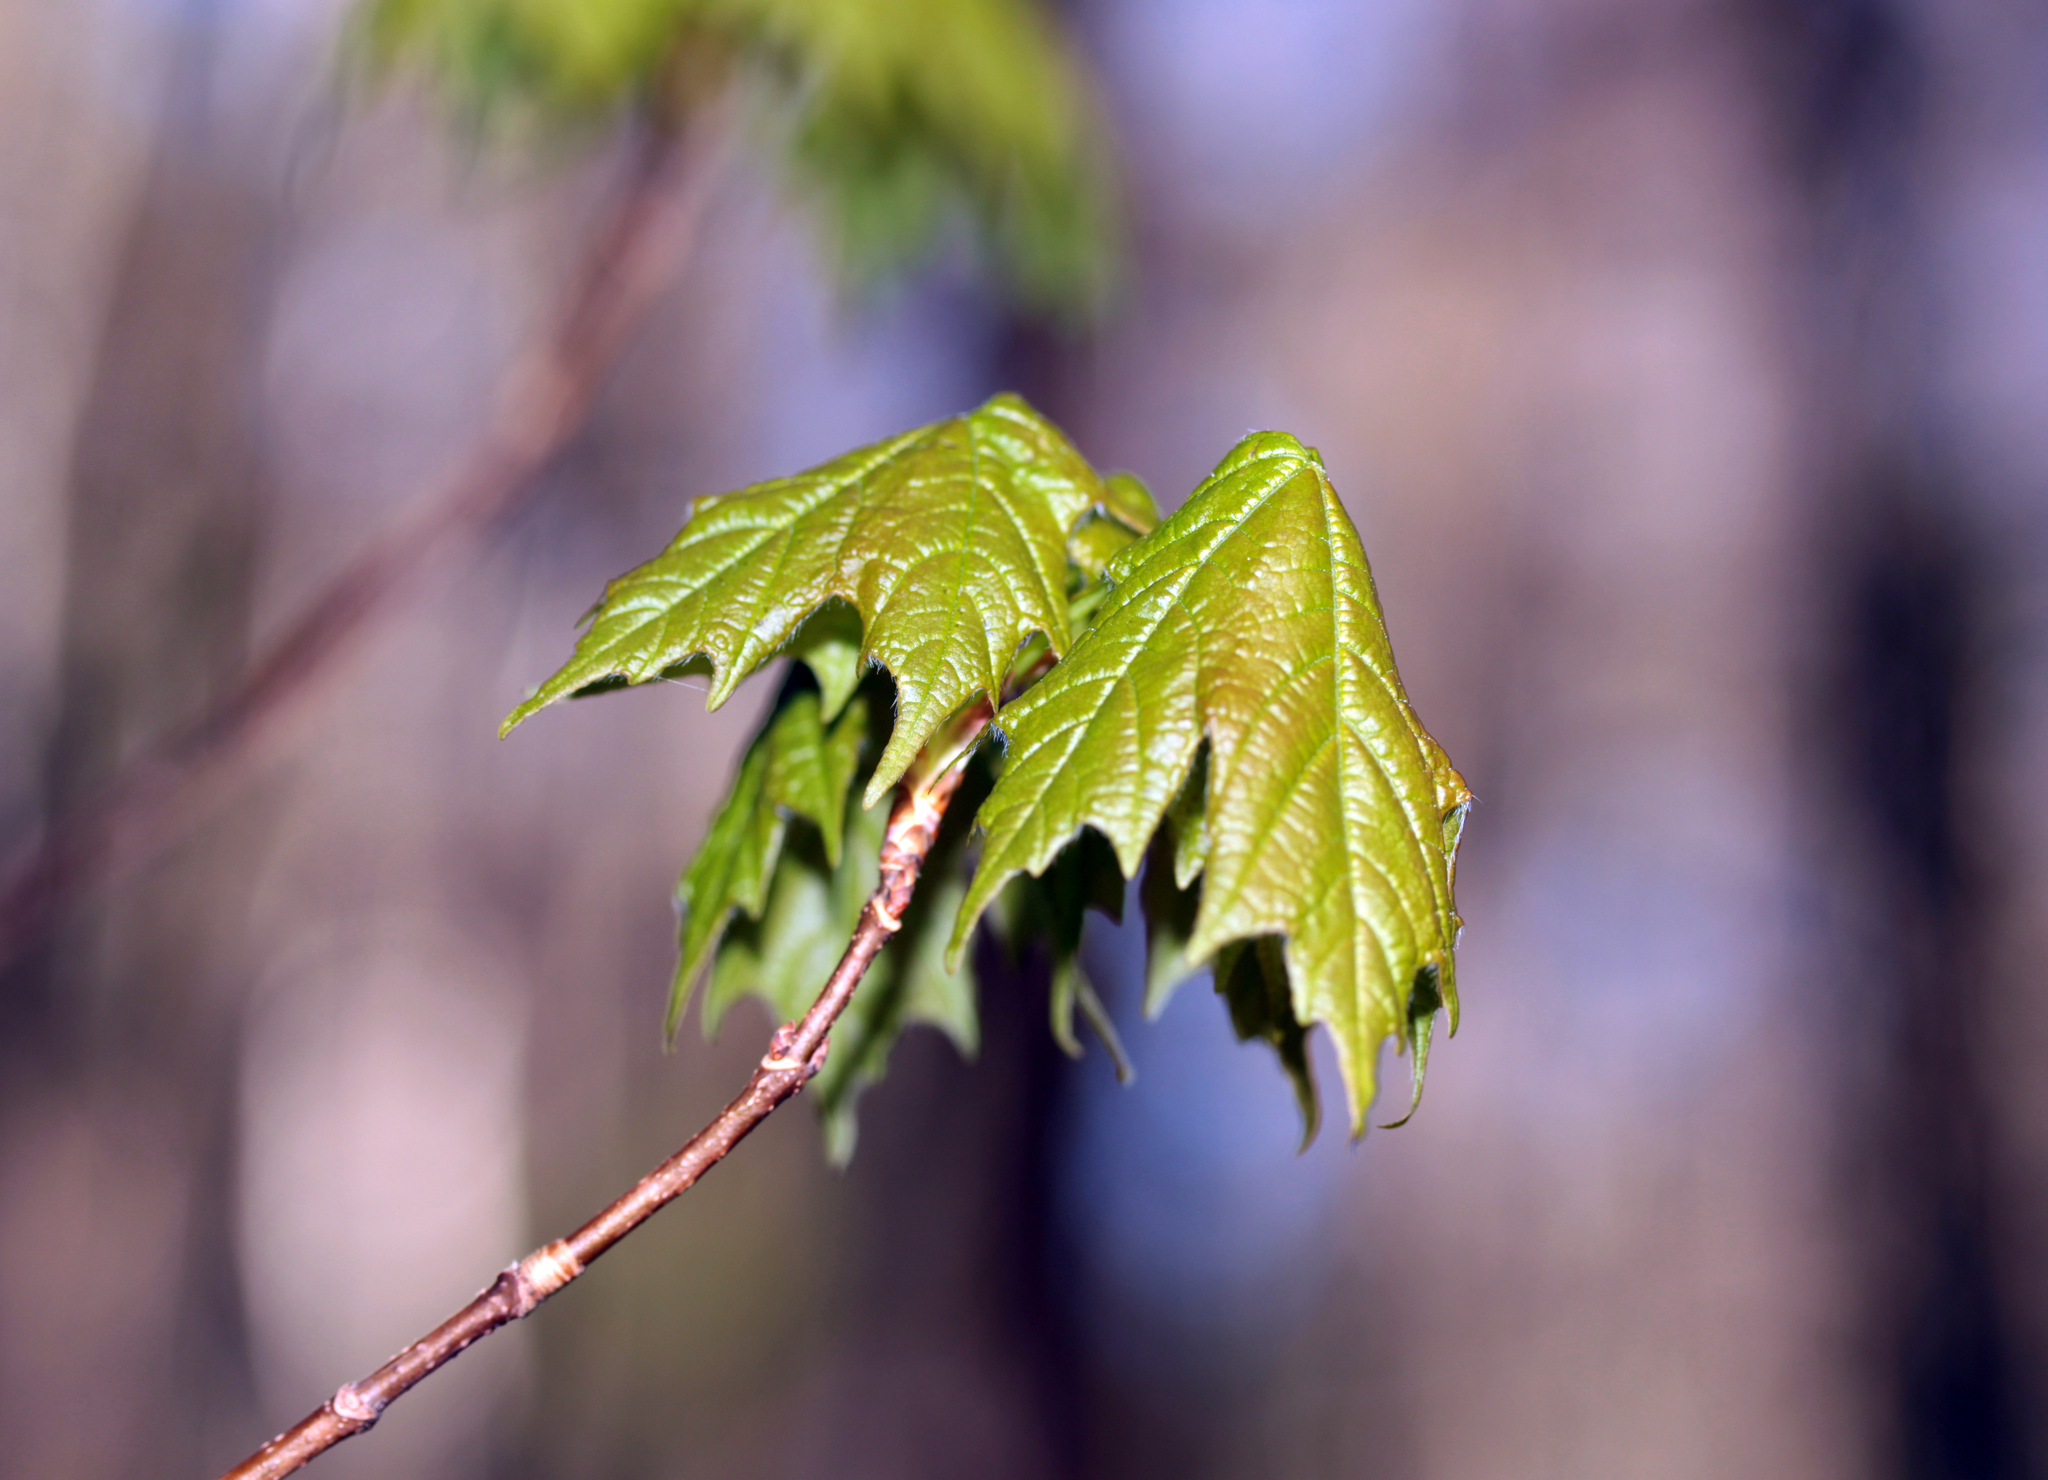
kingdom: Plantae
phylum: Tracheophyta
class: Magnoliopsida
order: Sapindales
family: Sapindaceae
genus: Acer
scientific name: Acer saccharum
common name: Sugar maple
